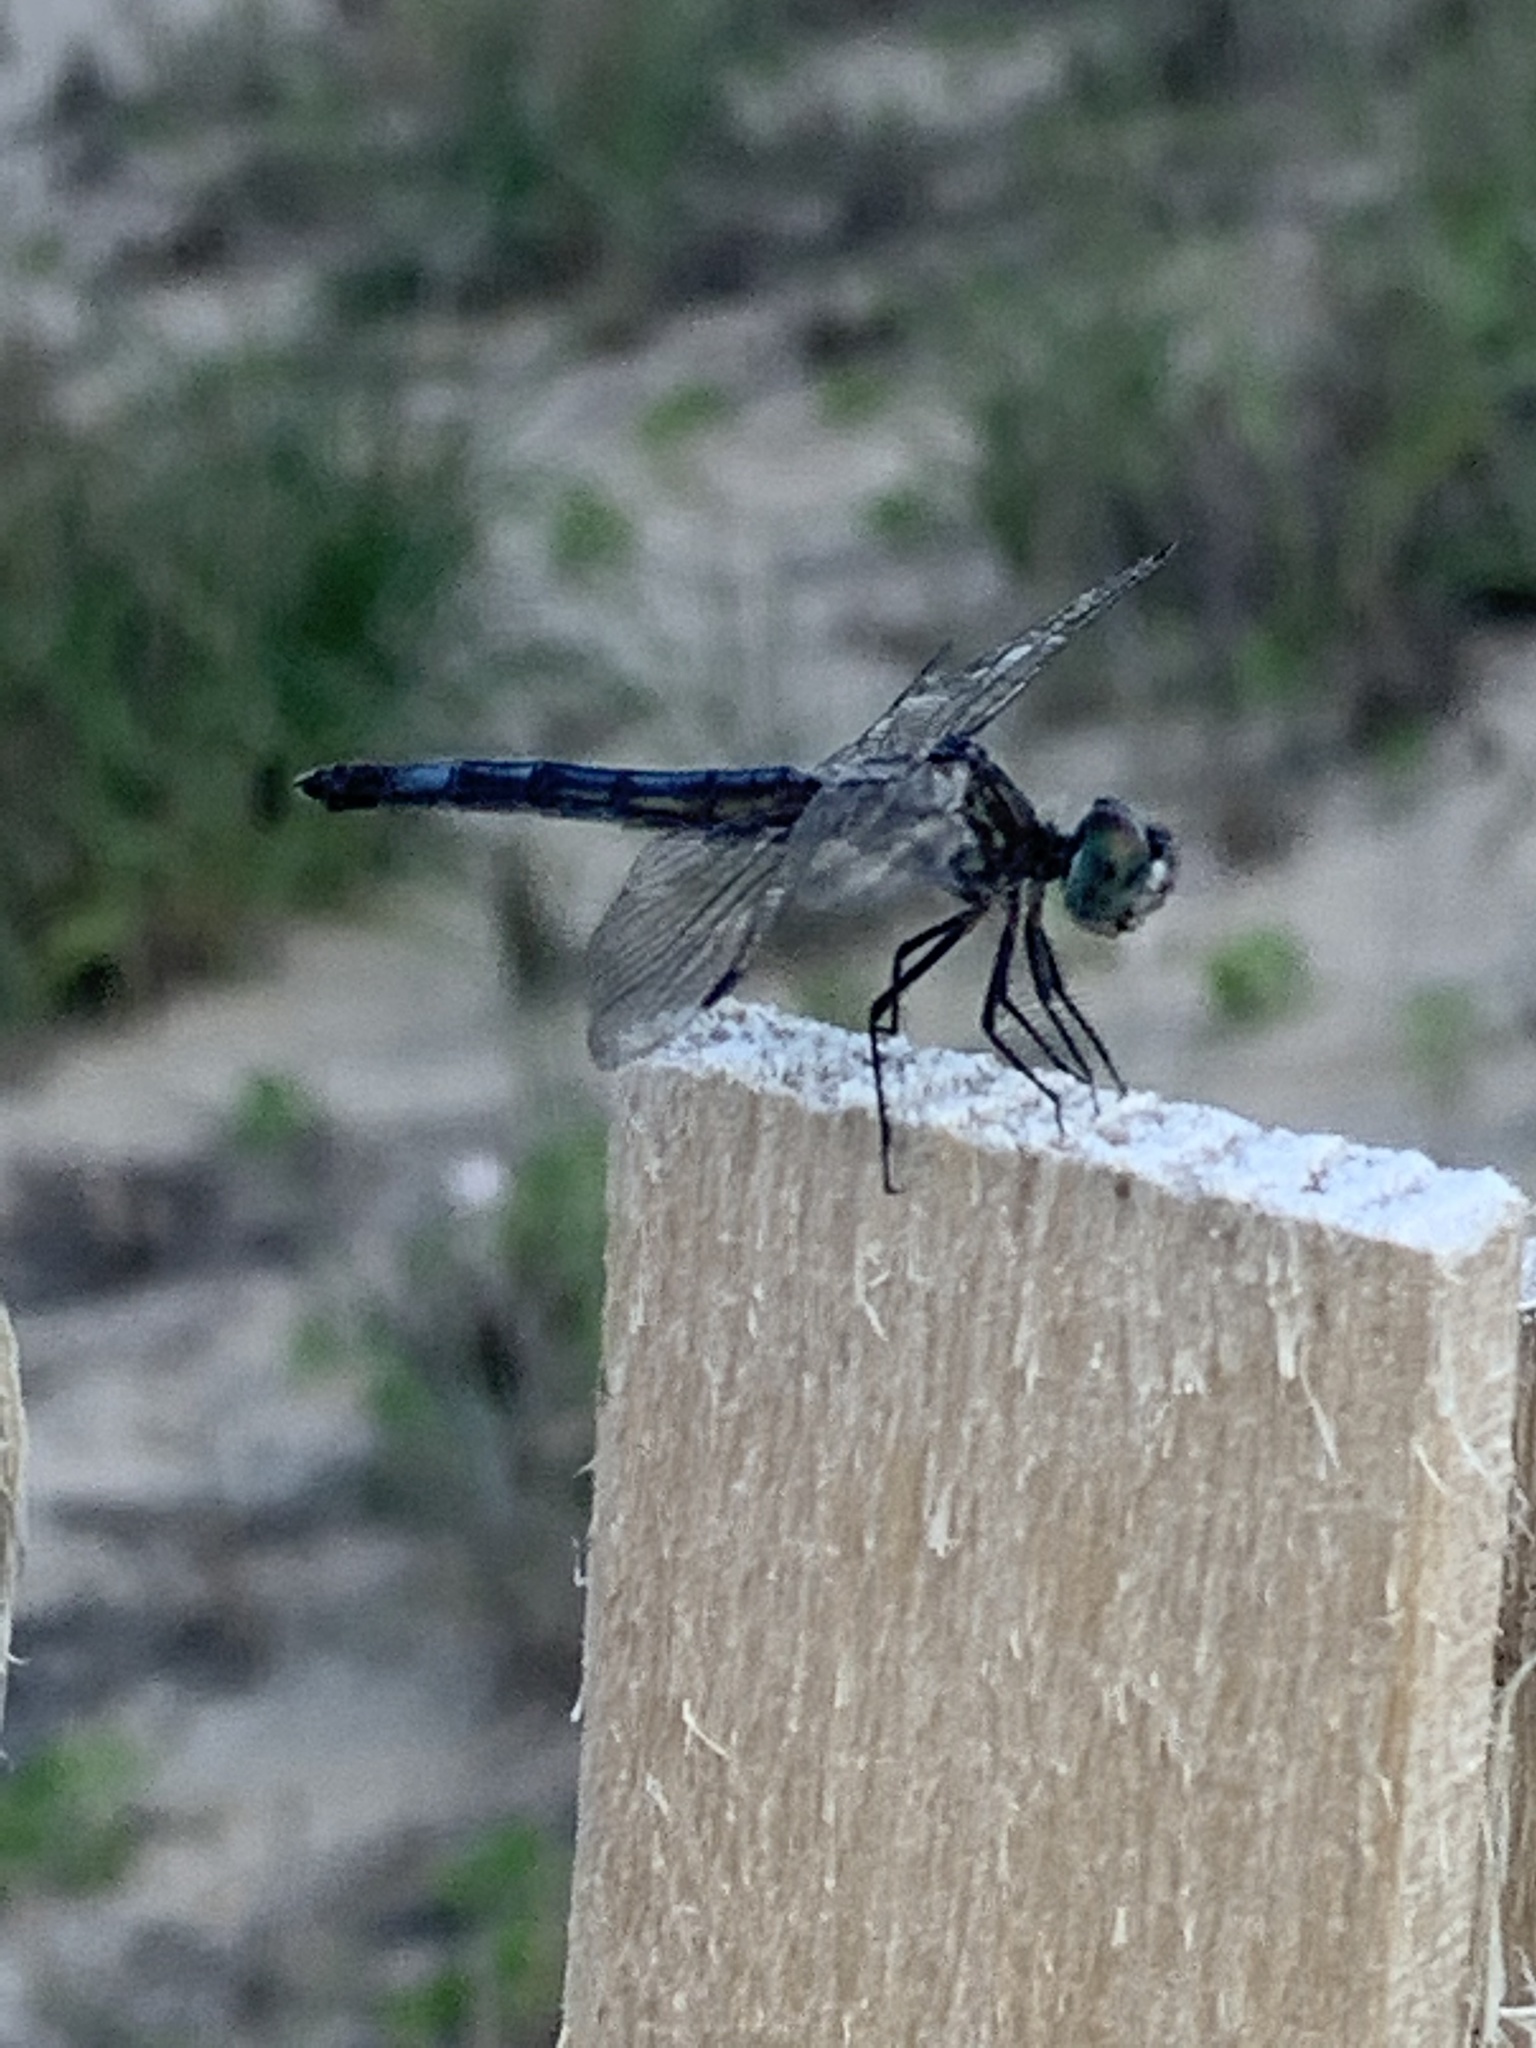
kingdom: Animalia
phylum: Arthropoda
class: Insecta
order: Odonata
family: Libellulidae
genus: Erythrodiplax
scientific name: Erythrodiplax berenice
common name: Seaside dragonlet
